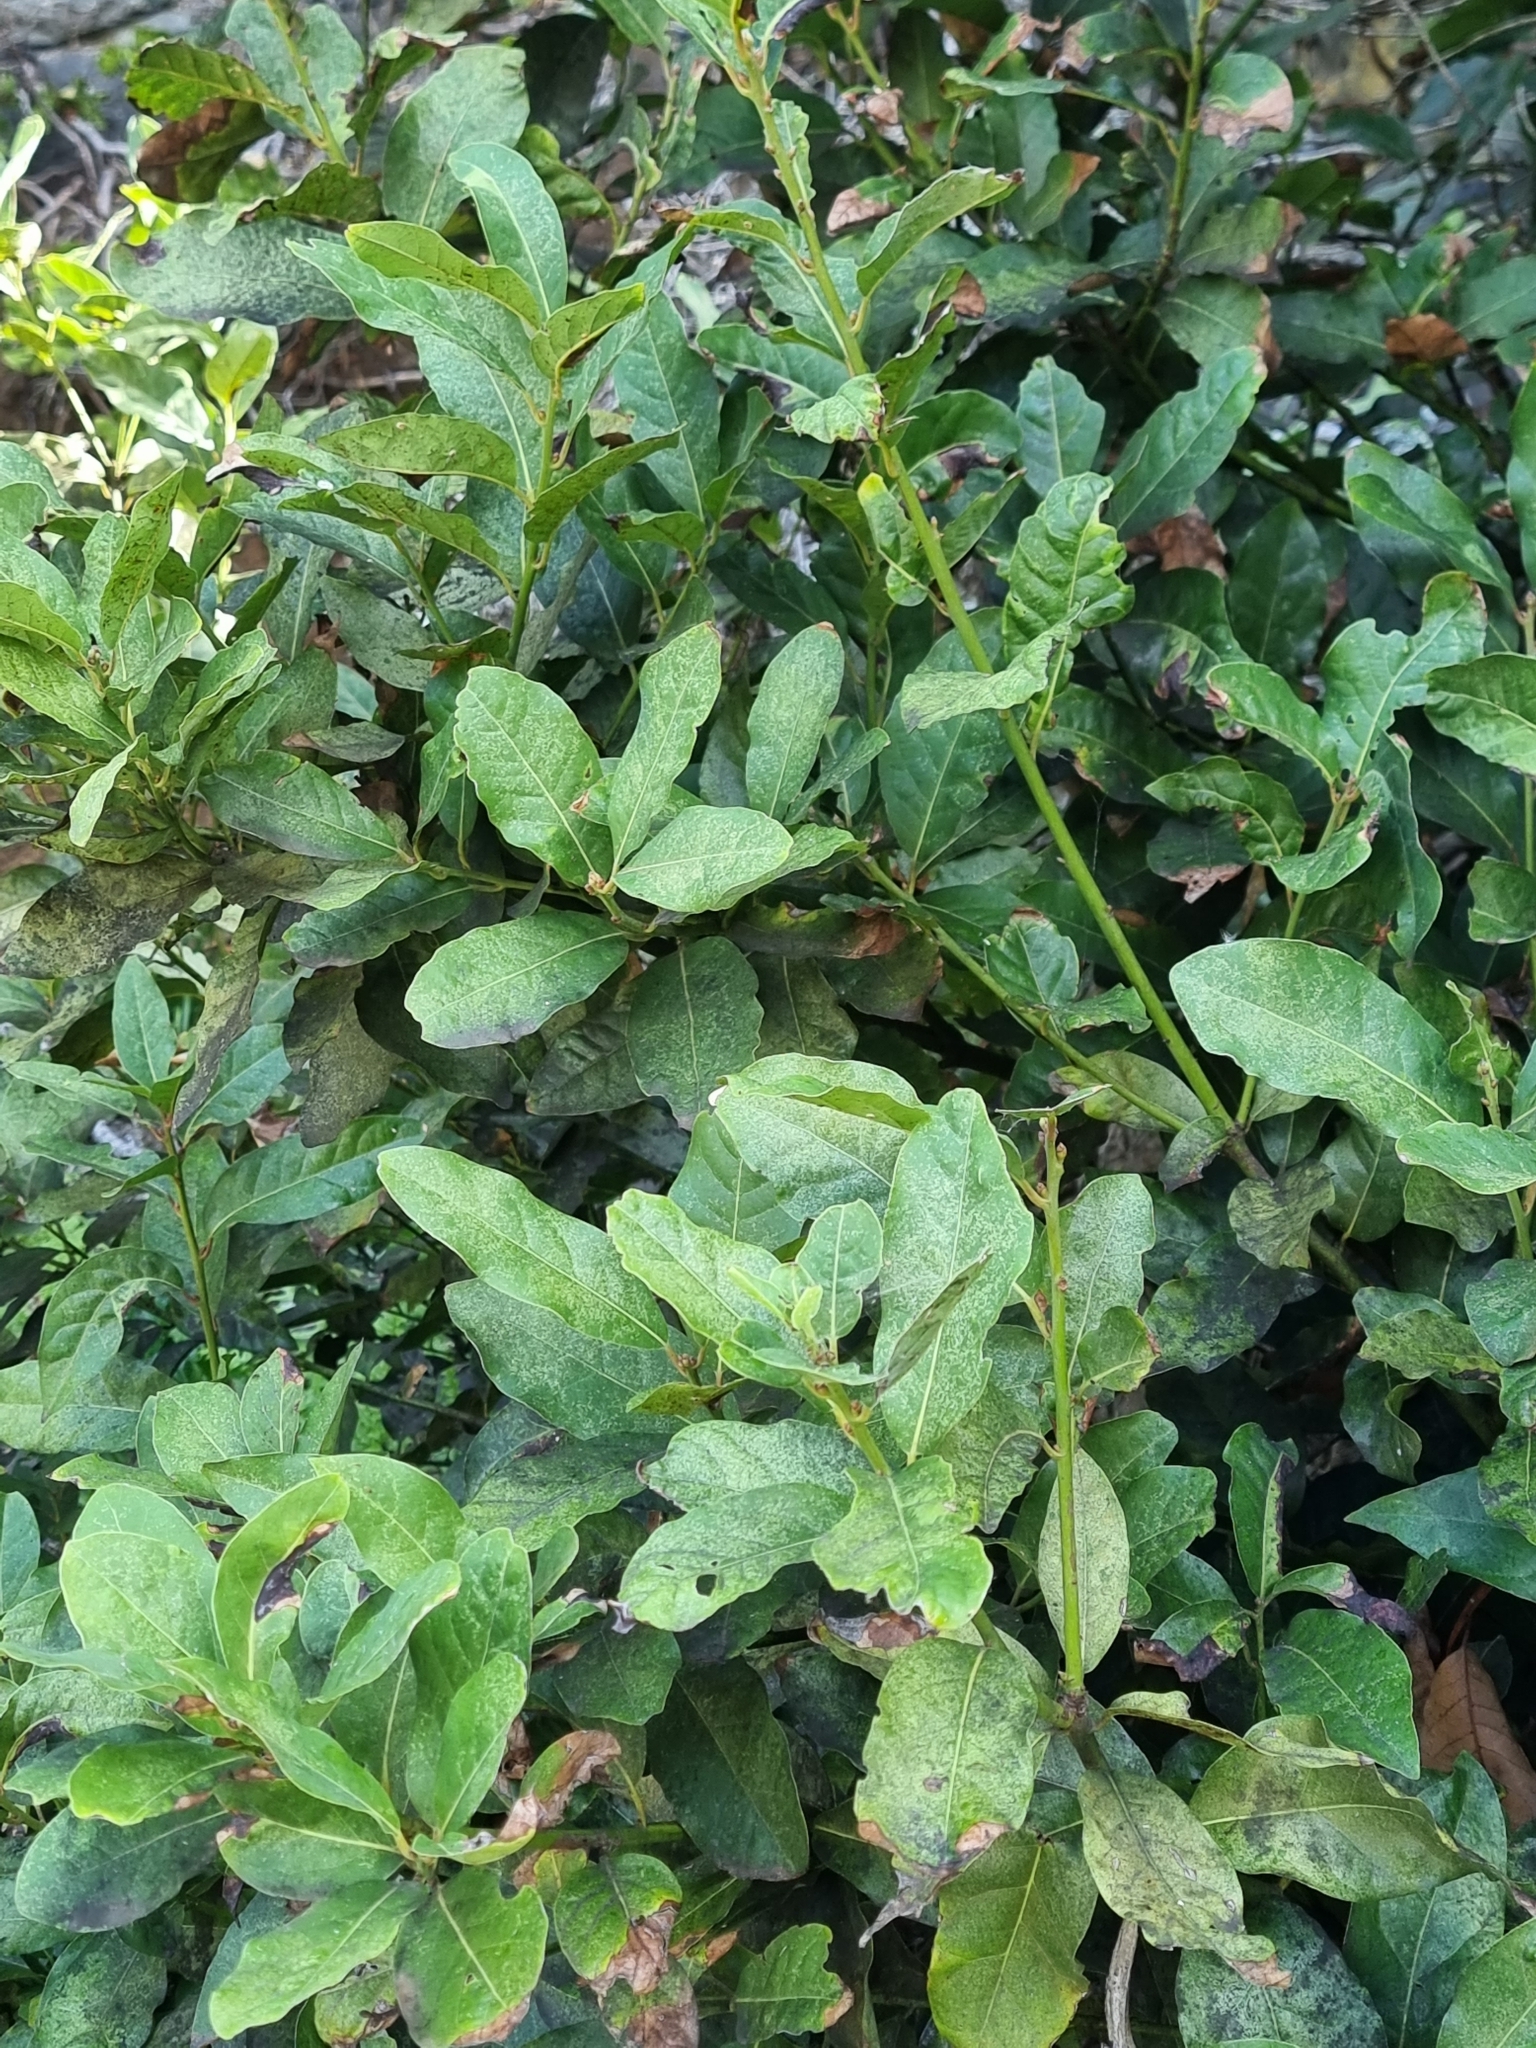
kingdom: Plantae
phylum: Tracheophyta
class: Magnoliopsida
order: Laurales
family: Lauraceae
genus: Laurus
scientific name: Laurus novocanariensis
